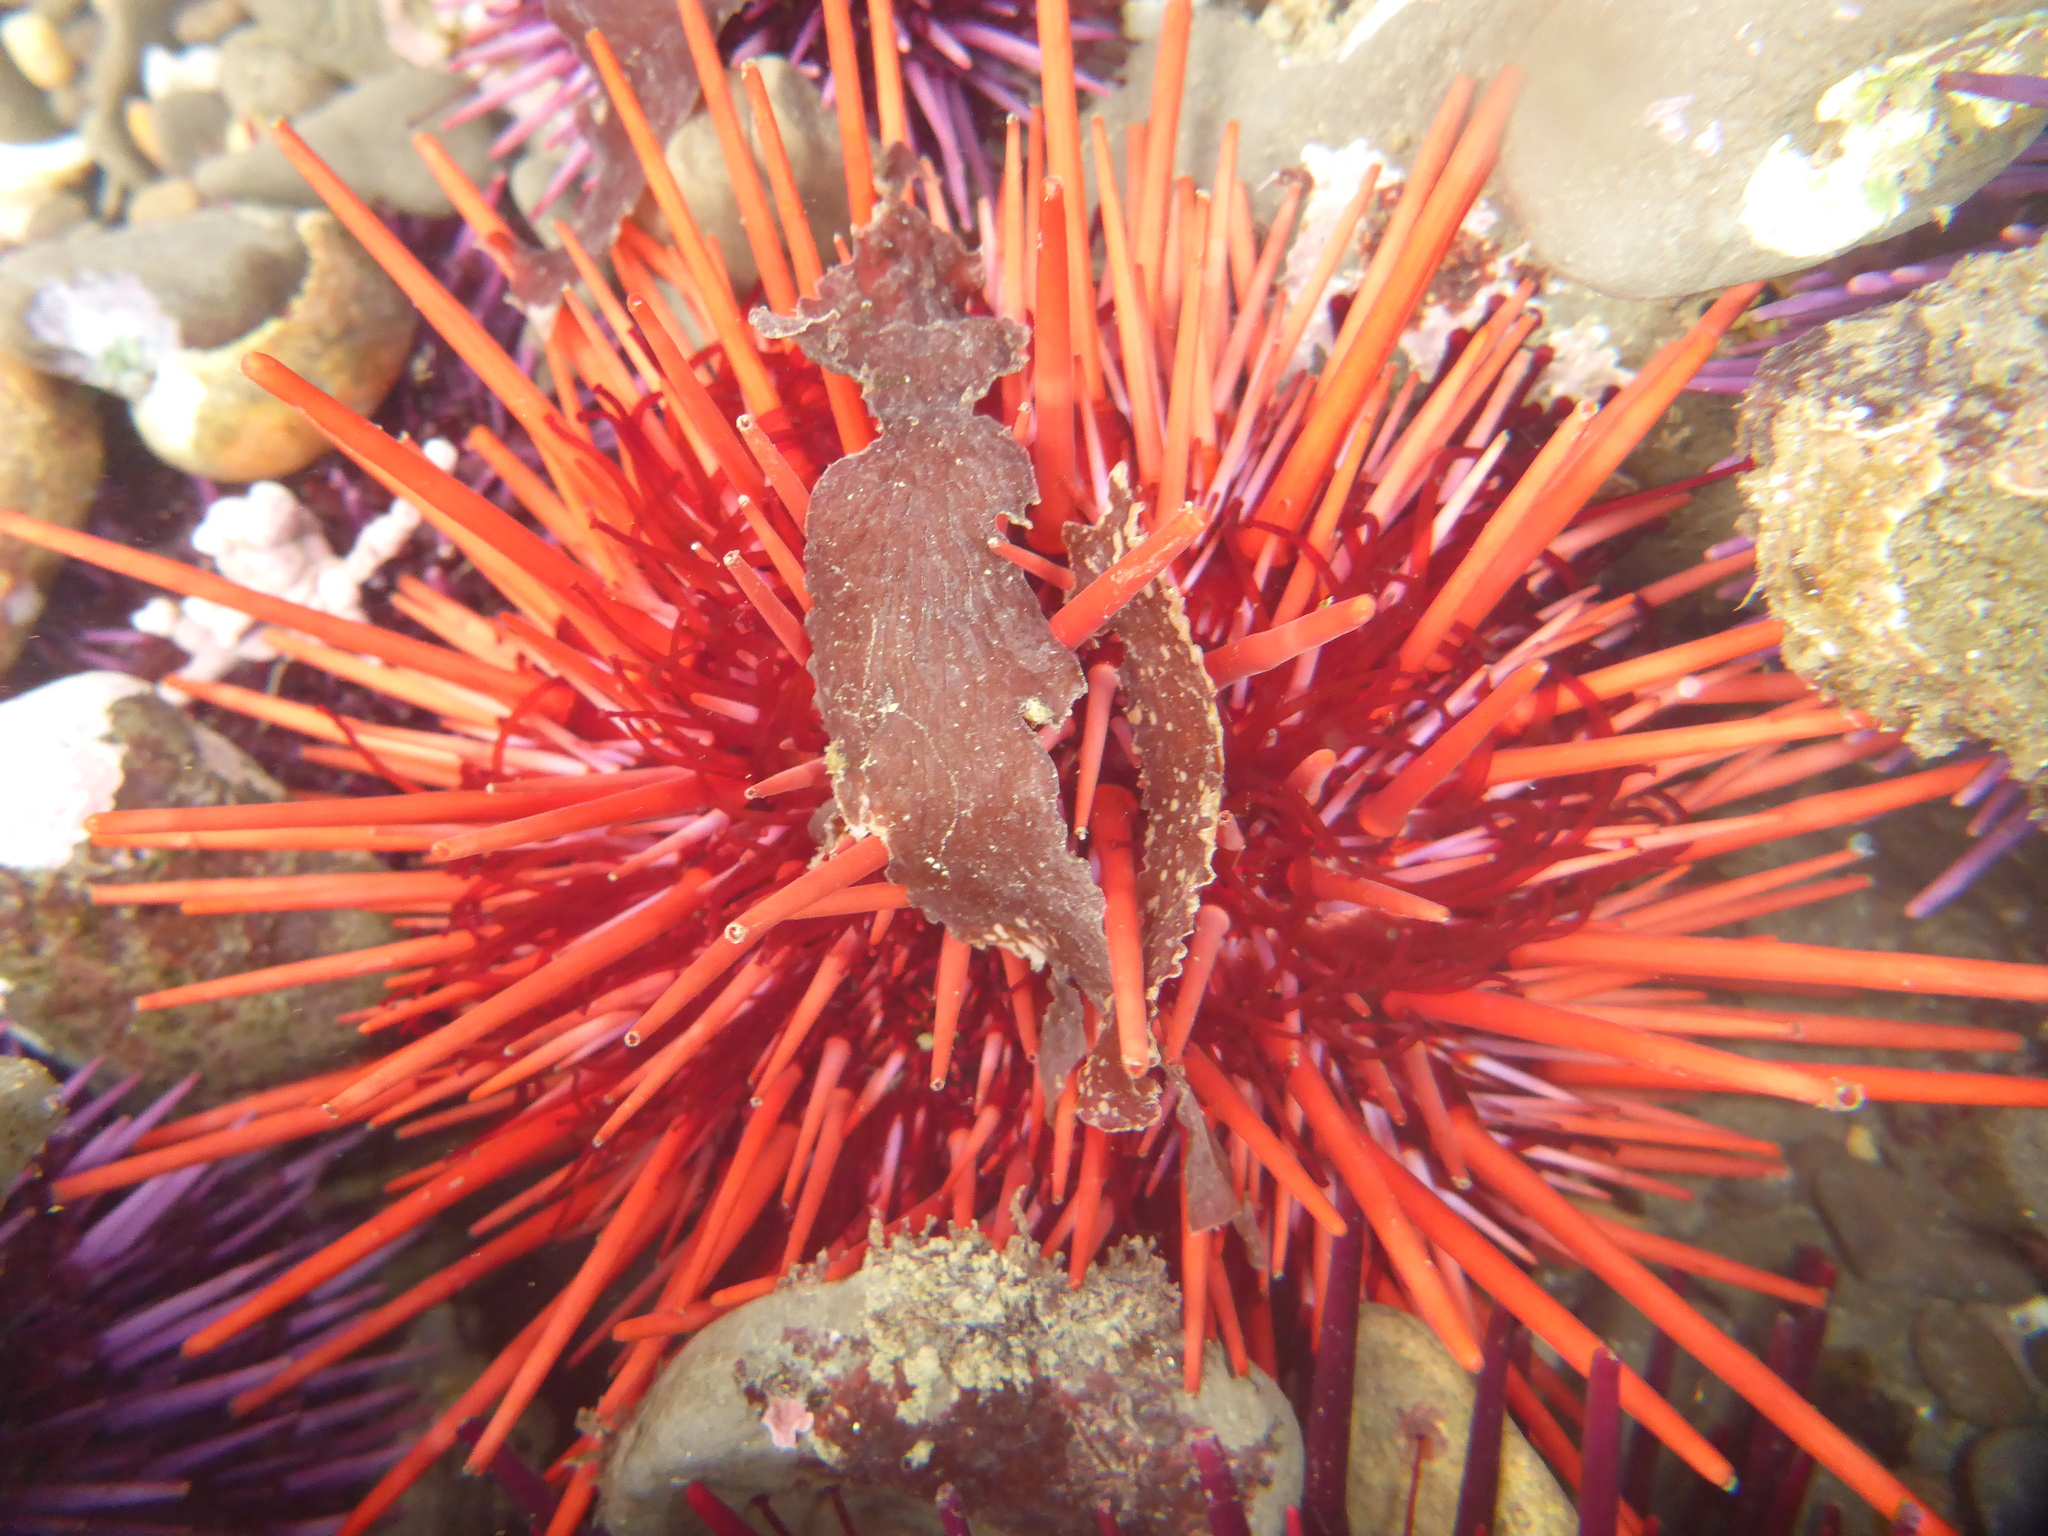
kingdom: Animalia
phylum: Echinodermata
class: Echinoidea
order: Camarodonta
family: Strongylocentrotidae
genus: Mesocentrotus
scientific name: Mesocentrotus franciscanus
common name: Red sea urchin
